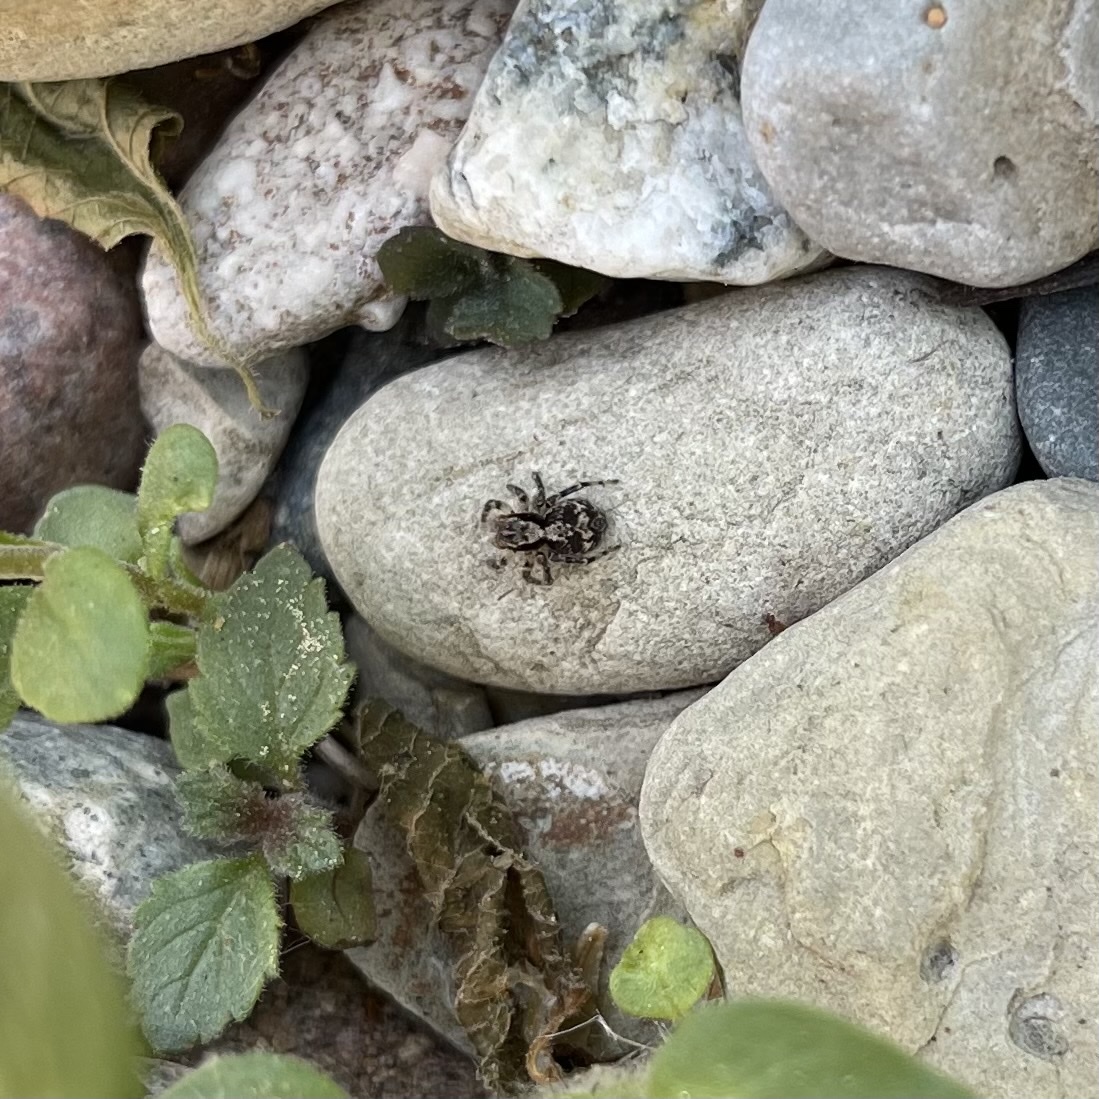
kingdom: Animalia
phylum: Arthropoda
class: Arachnida
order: Araneae
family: Salticidae
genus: Naphrys
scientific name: Naphrys pulex
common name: Flea jumping spider
